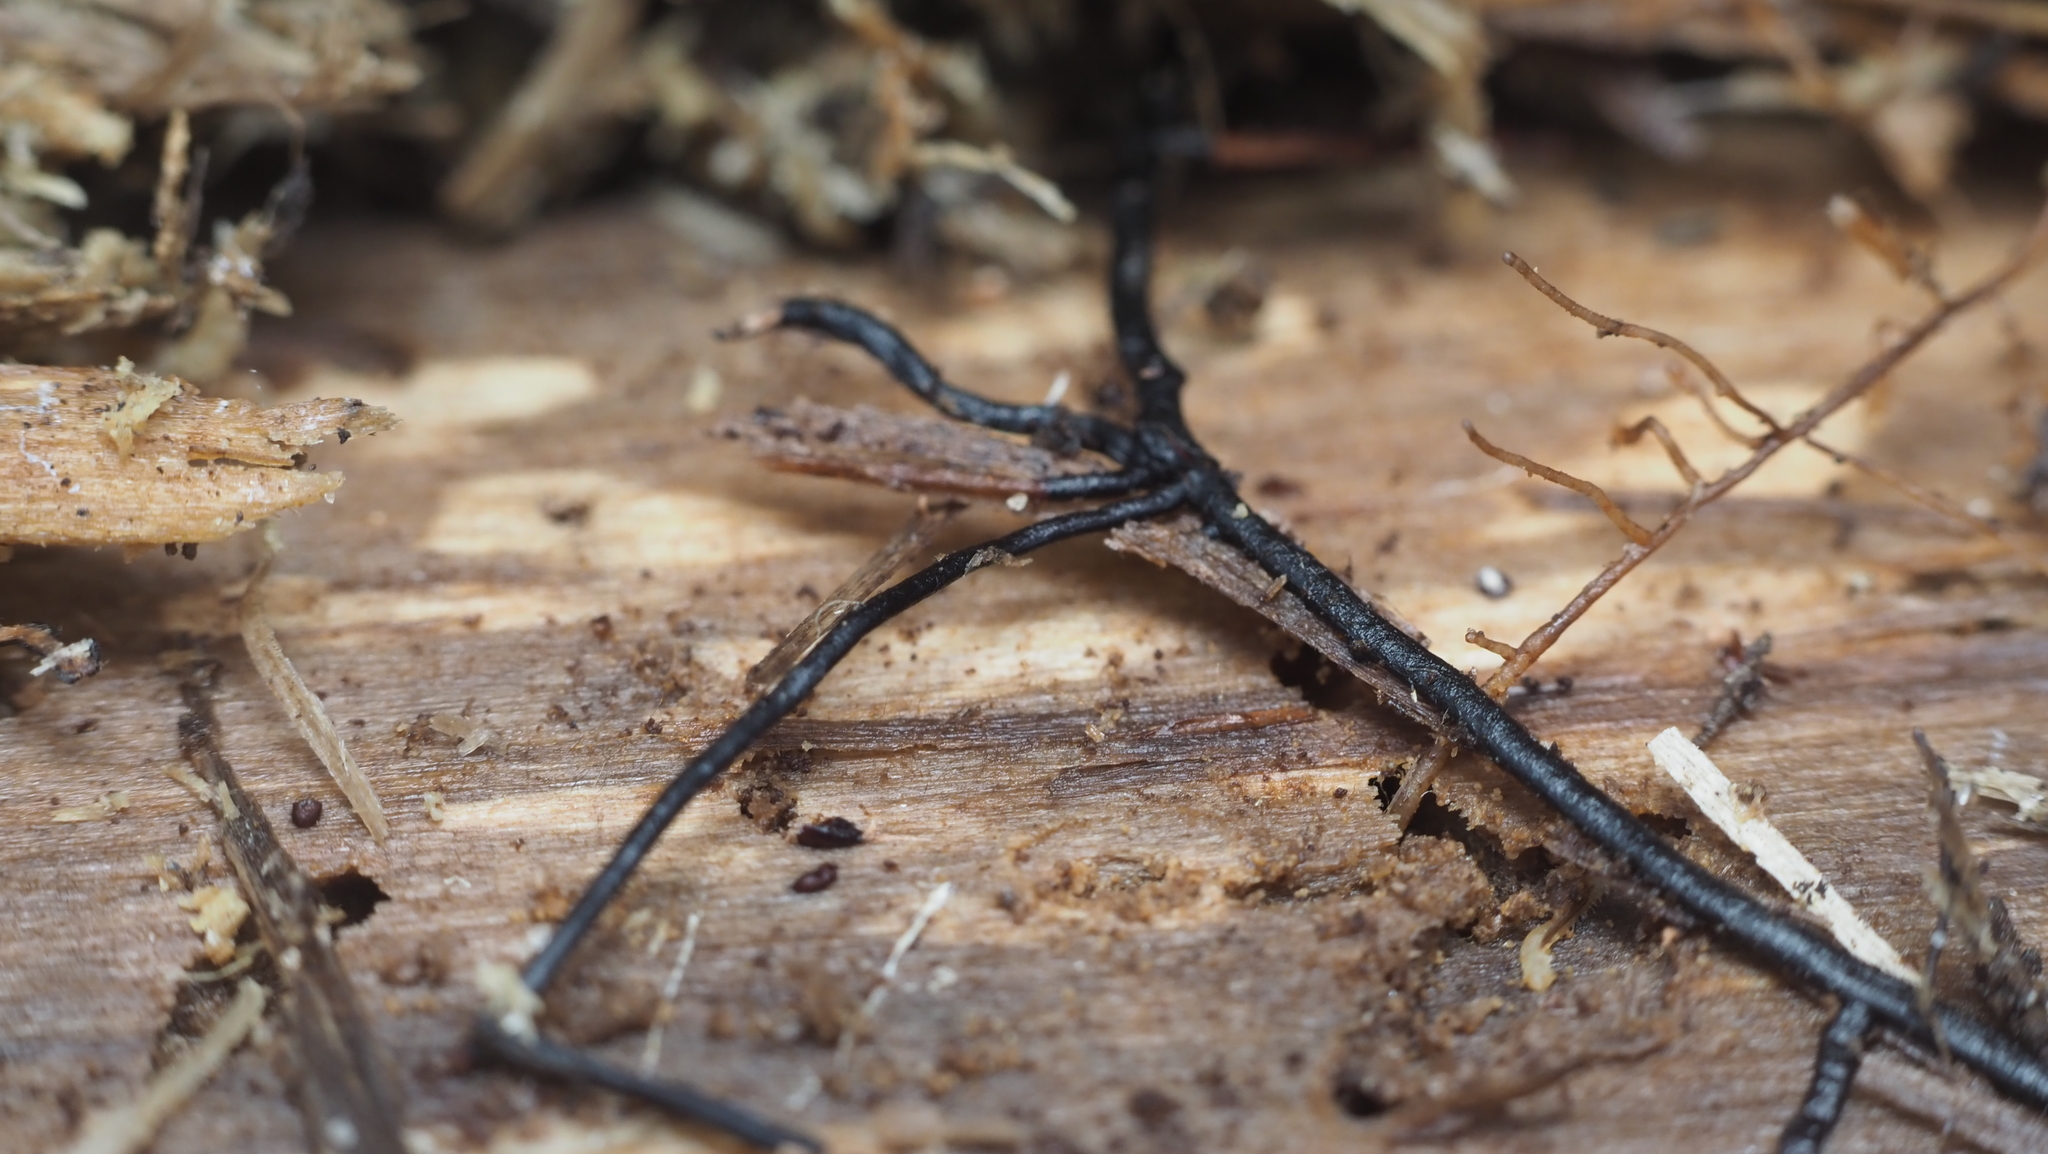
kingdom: Fungi
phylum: Basidiomycota
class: Agaricomycetes
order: Agaricales
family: Physalacriaceae
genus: Armillaria
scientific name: Armillaria
